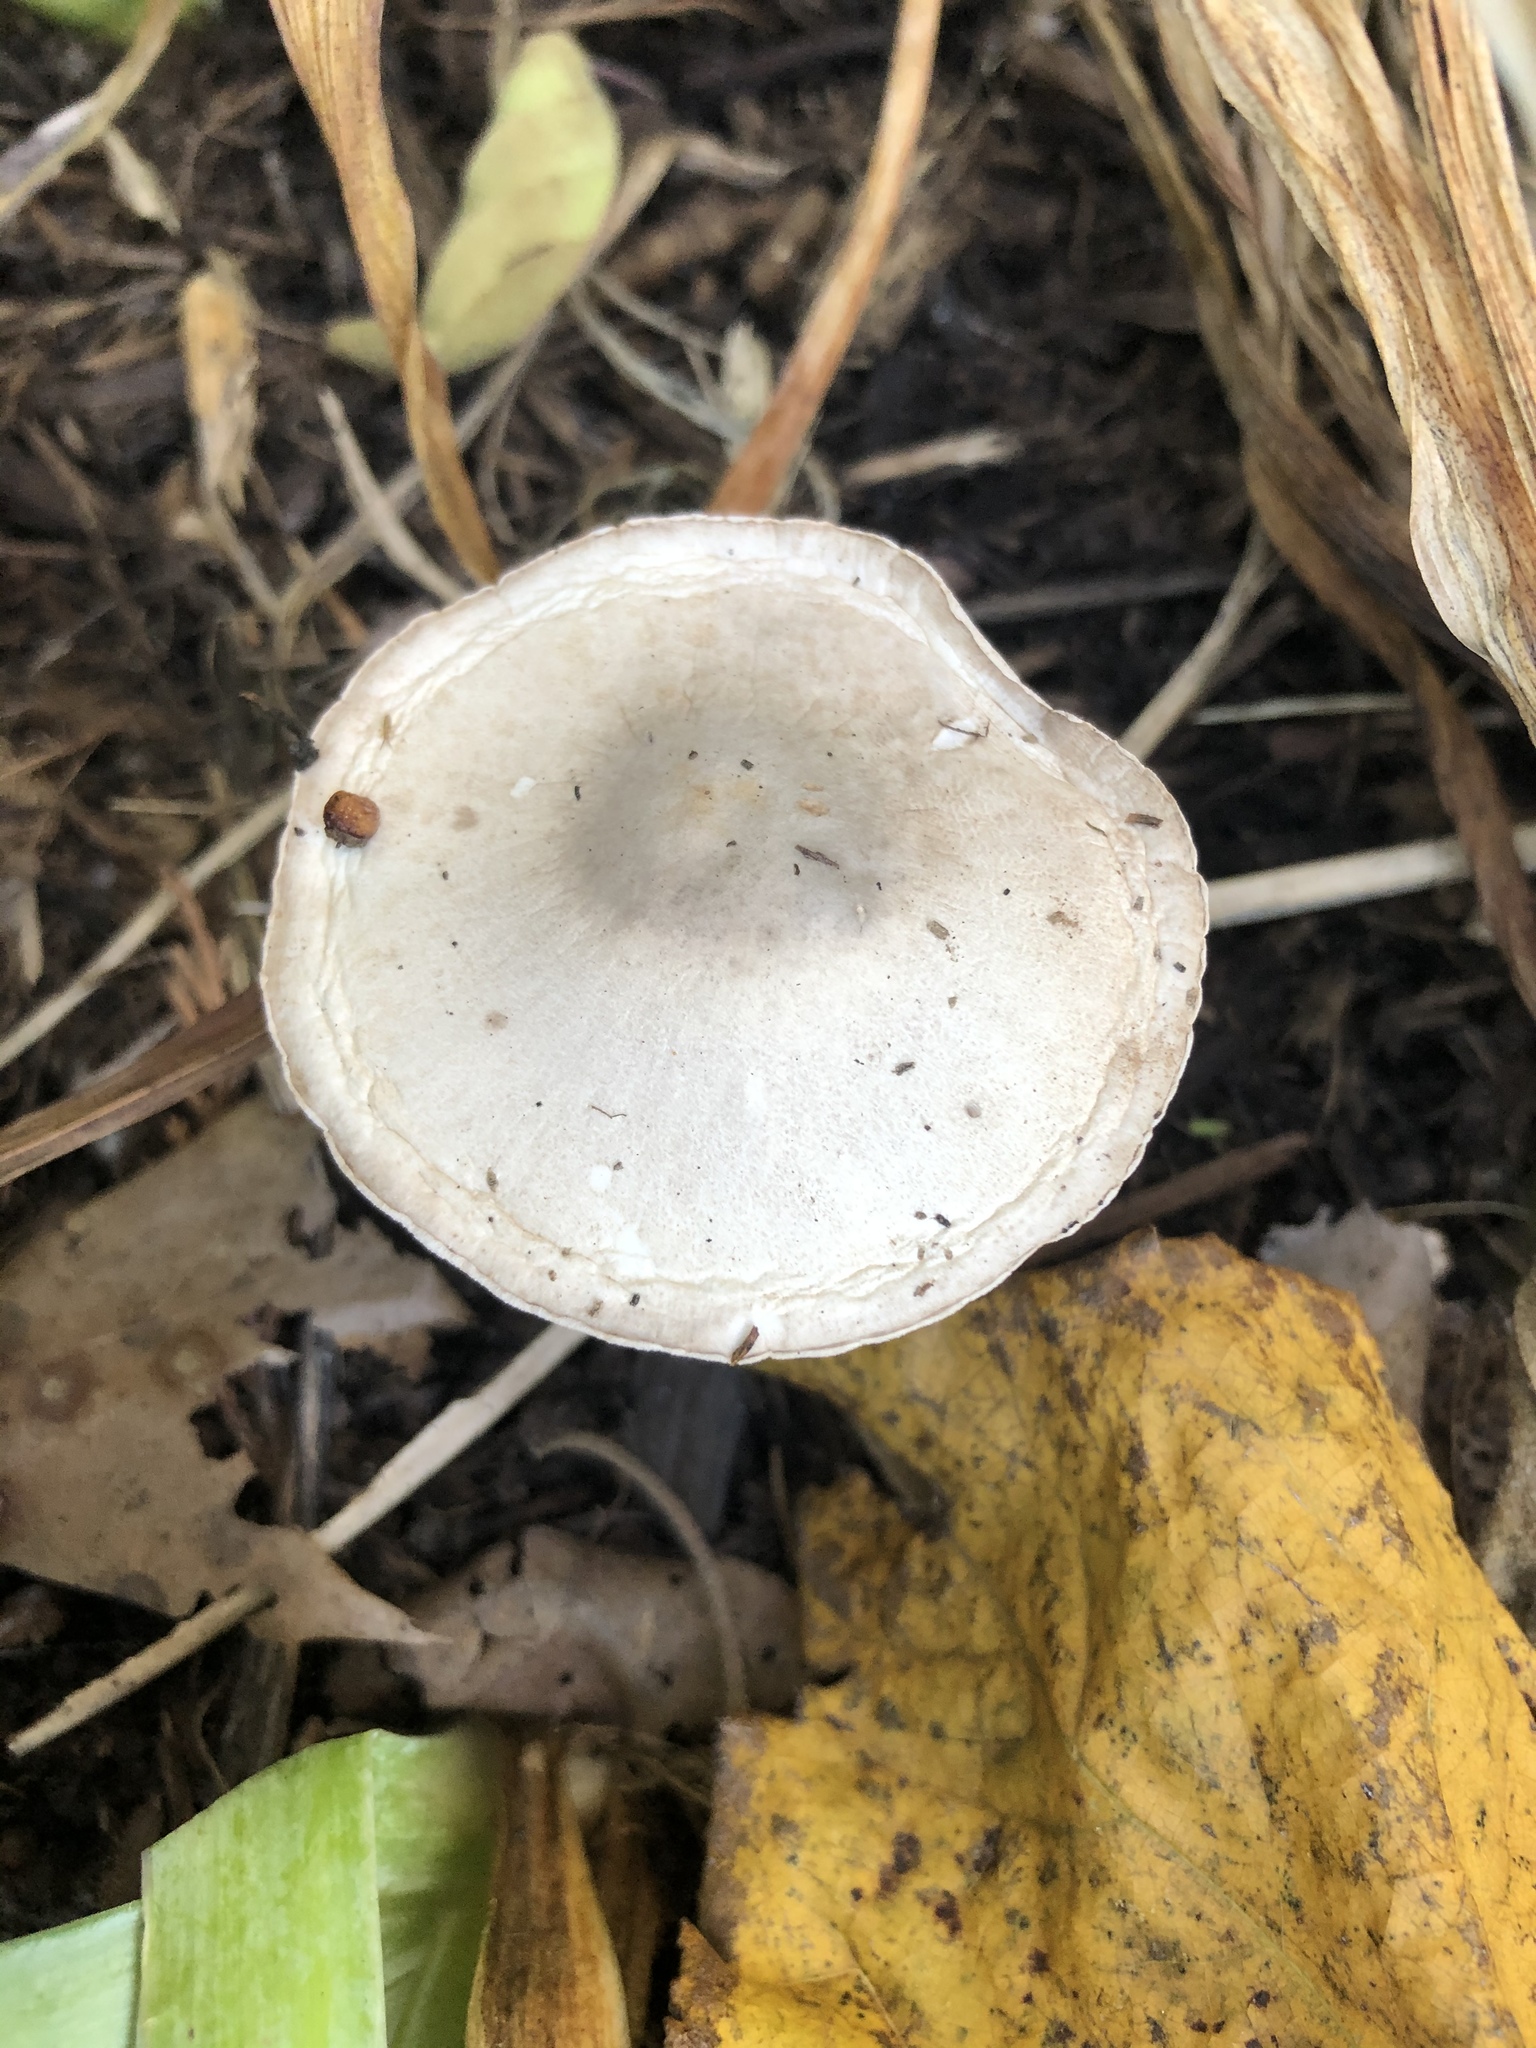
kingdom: Fungi
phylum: Basidiomycota
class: Agaricomycetes
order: Agaricales
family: Agaricaceae
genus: Leucoagaricus
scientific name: Leucoagaricus leucothites
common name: White dapperling
